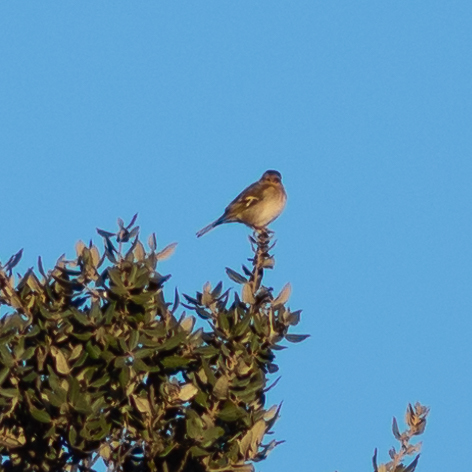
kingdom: Animalia
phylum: Chordata
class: Aves
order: Passeriformes
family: Fringillidae
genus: Fringilla
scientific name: Fringilla coelebs
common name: Common chaffinch
